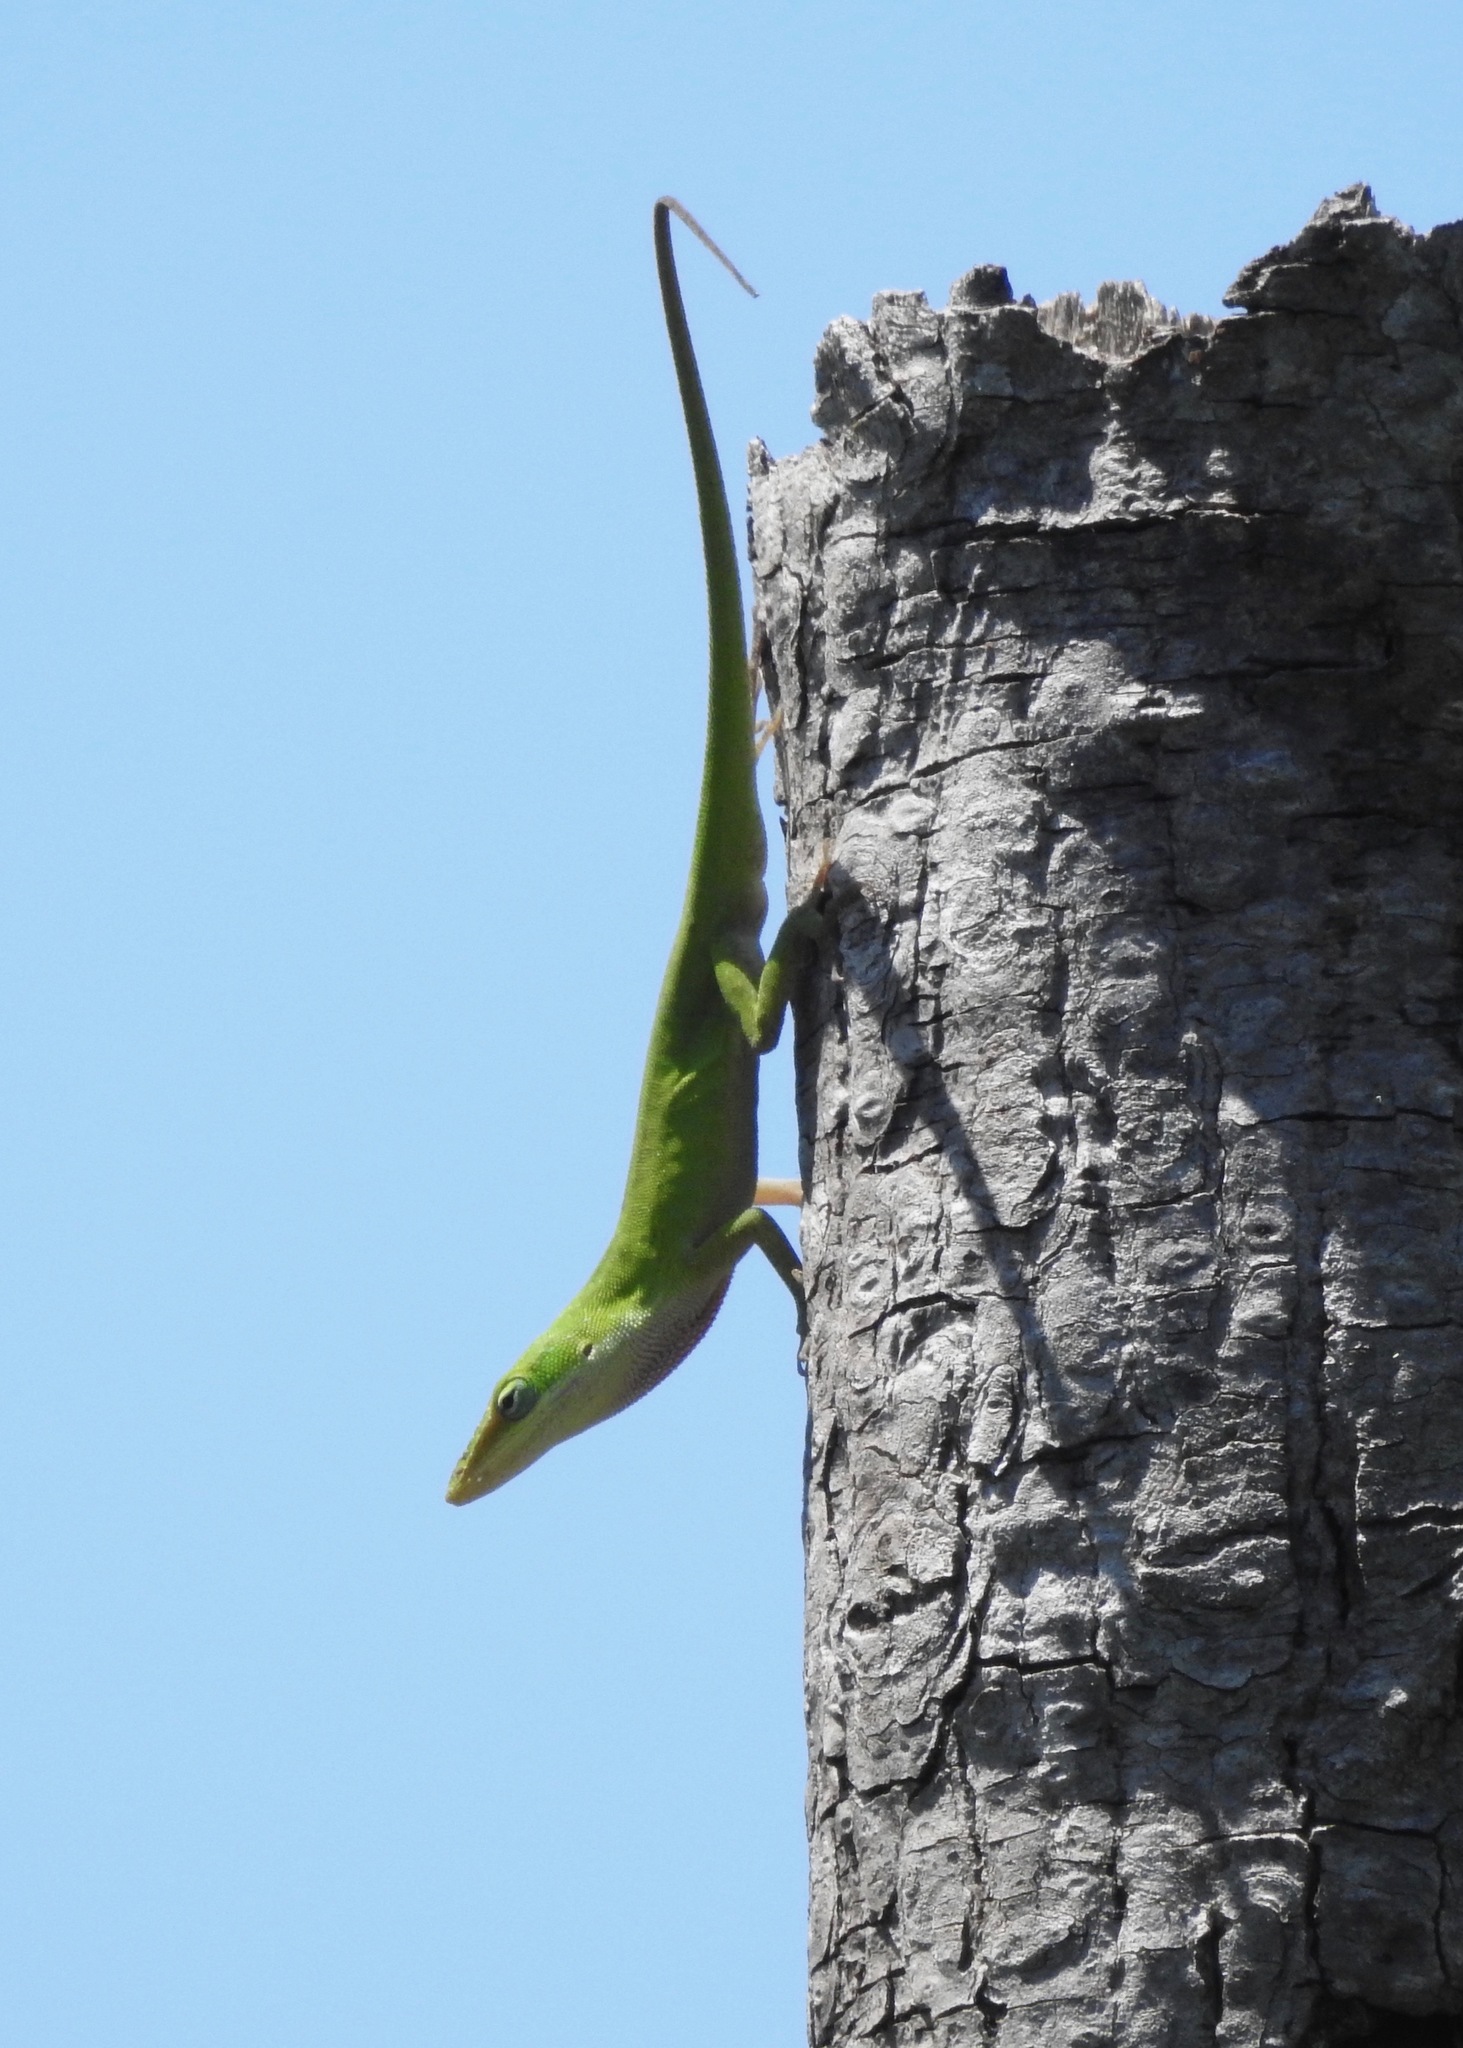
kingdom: Animalia
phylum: Chordata
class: Squamata
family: Dactyloidae
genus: Anolis
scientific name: Anolis carolinensis
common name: Green anole
